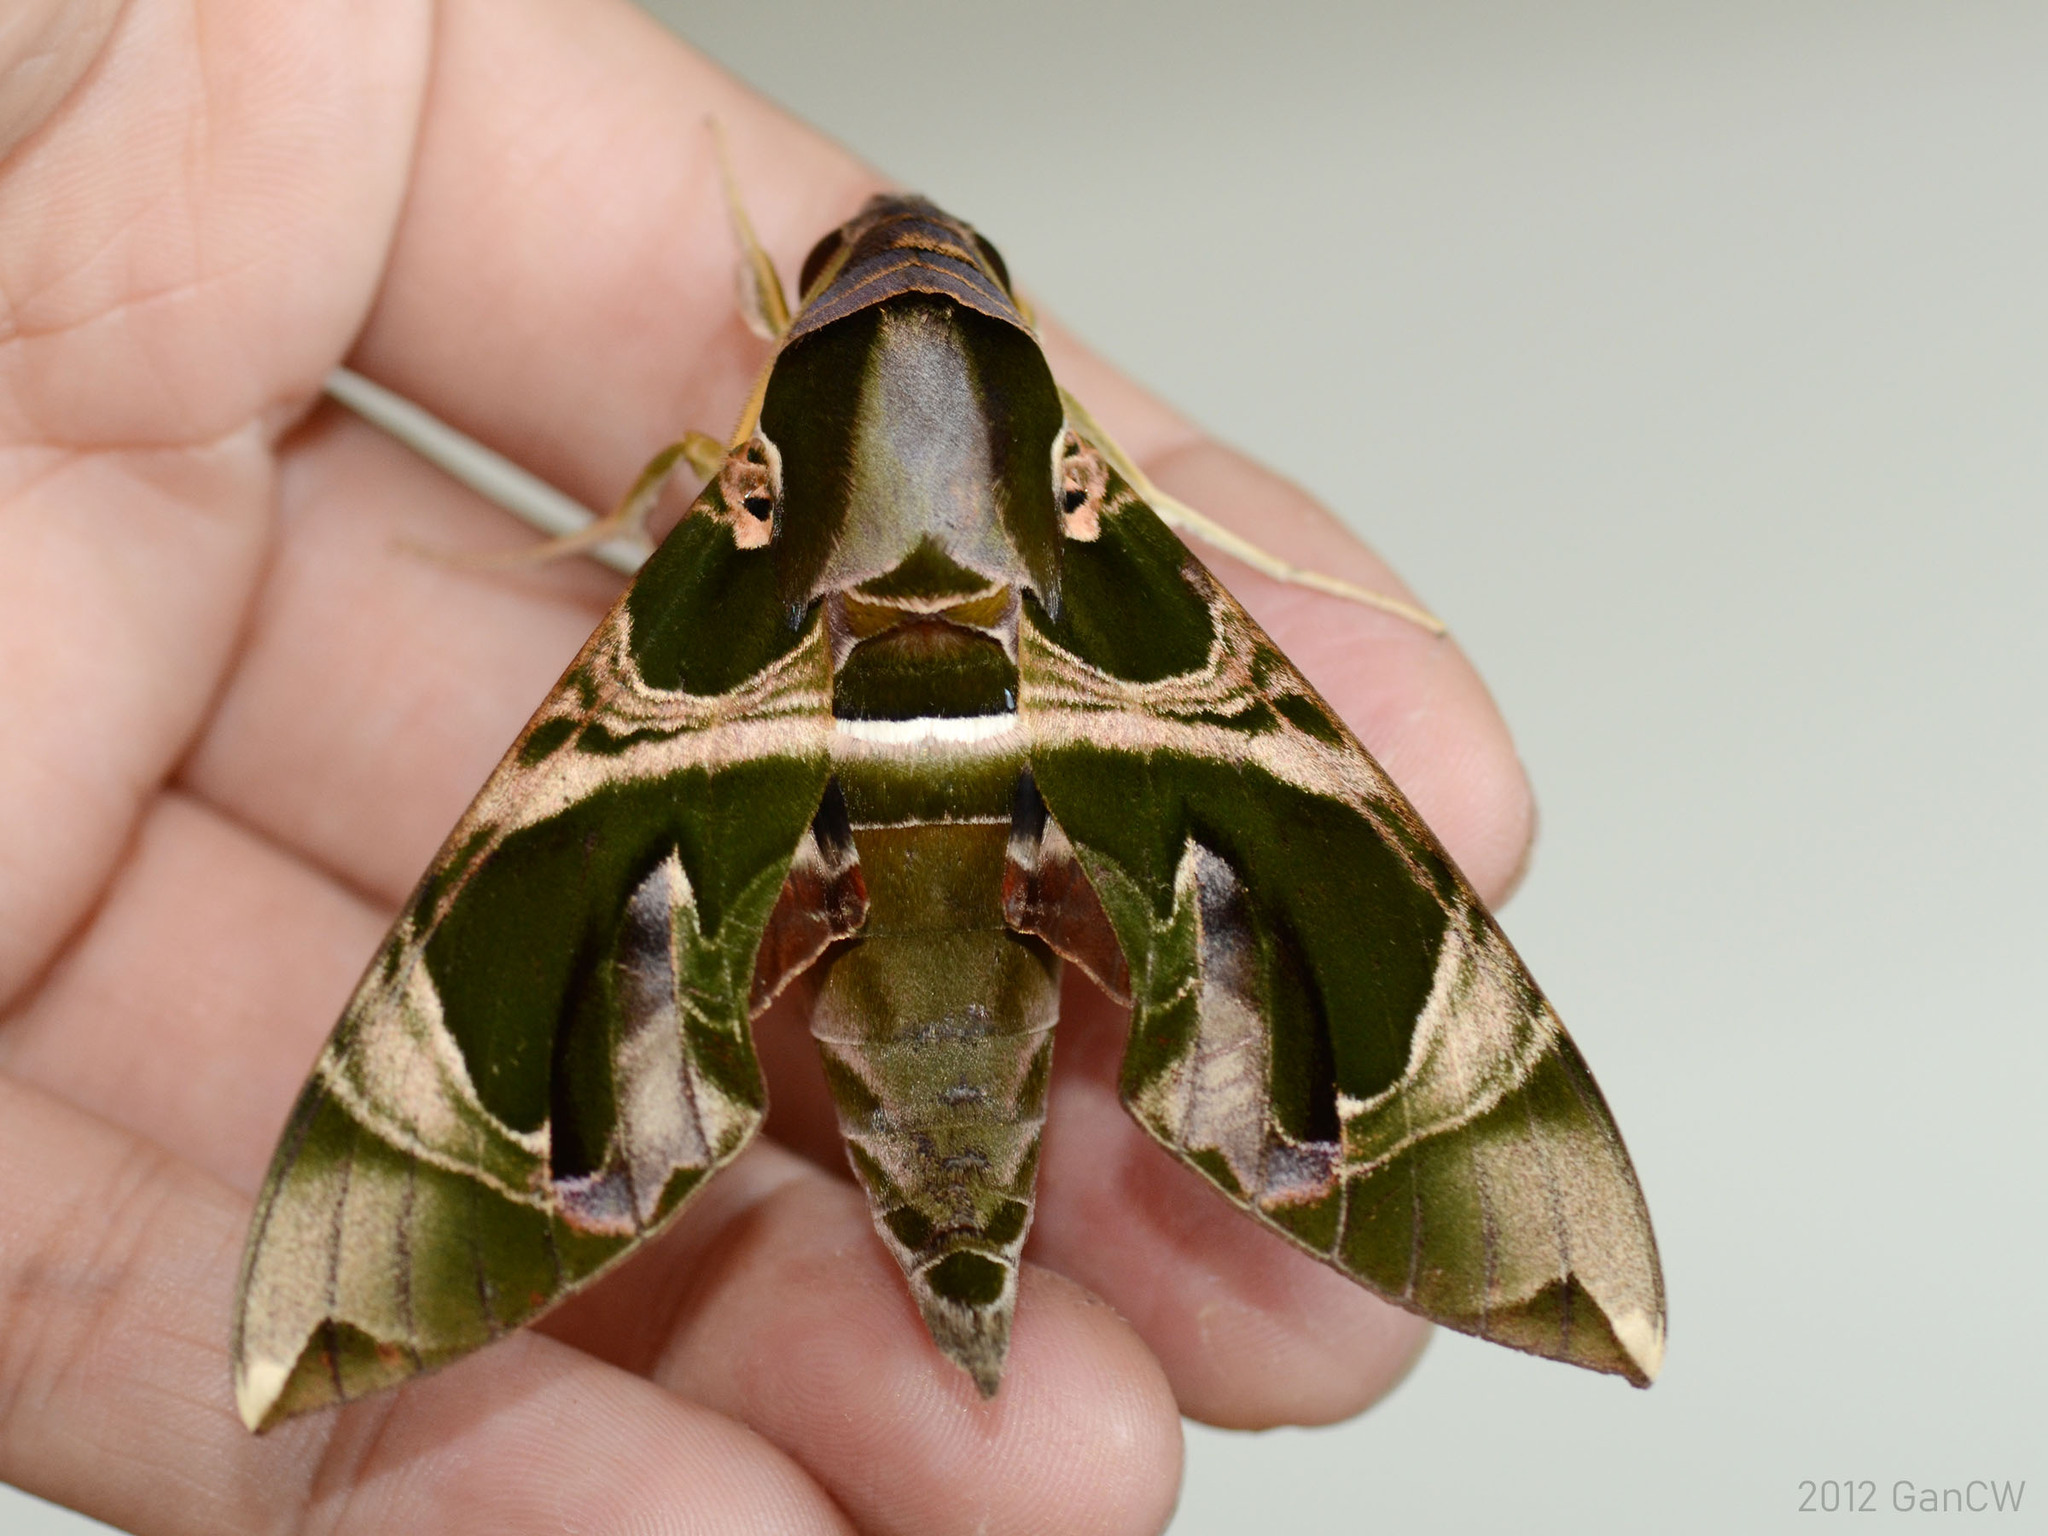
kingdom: Animalia
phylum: Arthropoda
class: Insecta
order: Lepidoptera
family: Sphingidae
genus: Daphnis
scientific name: Daphnis hypothous
